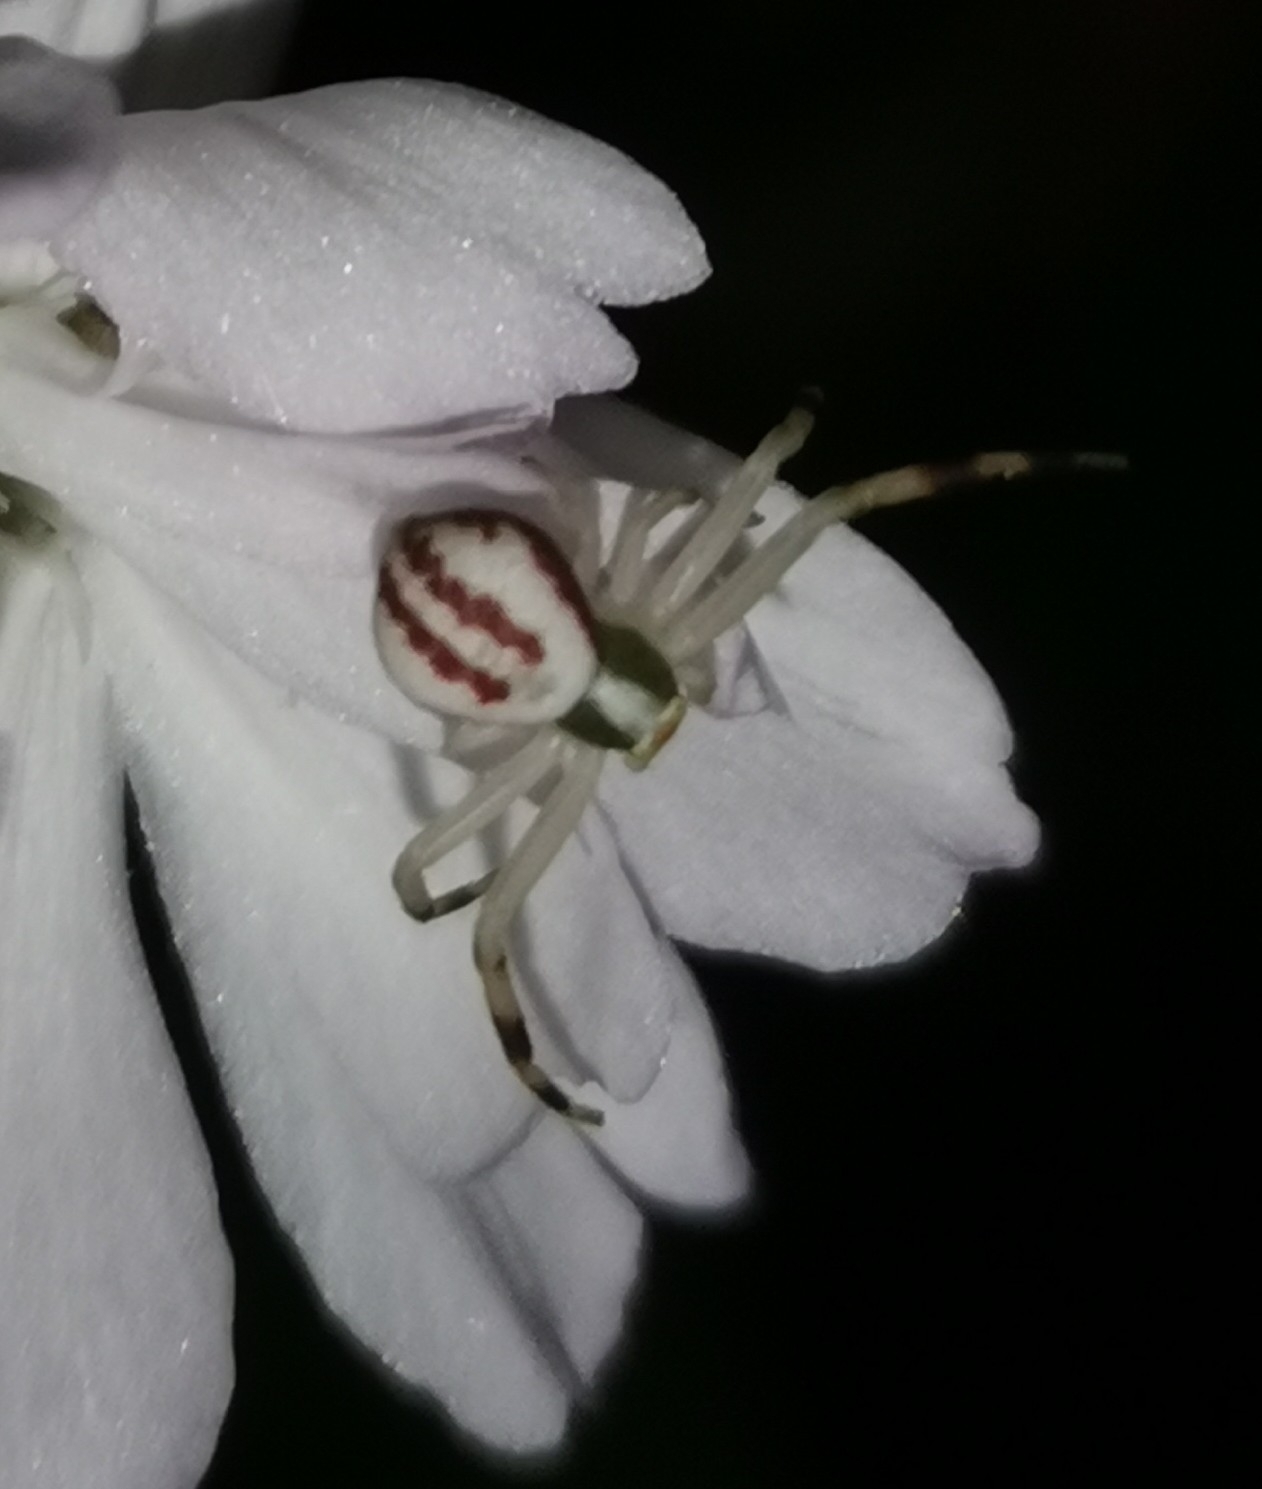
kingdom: Animalia
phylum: Arthropoda
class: Arachnida
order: Araneae
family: Thomisidae
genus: Misumena
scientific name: Misumena vatia
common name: Goldenrod crab spider
